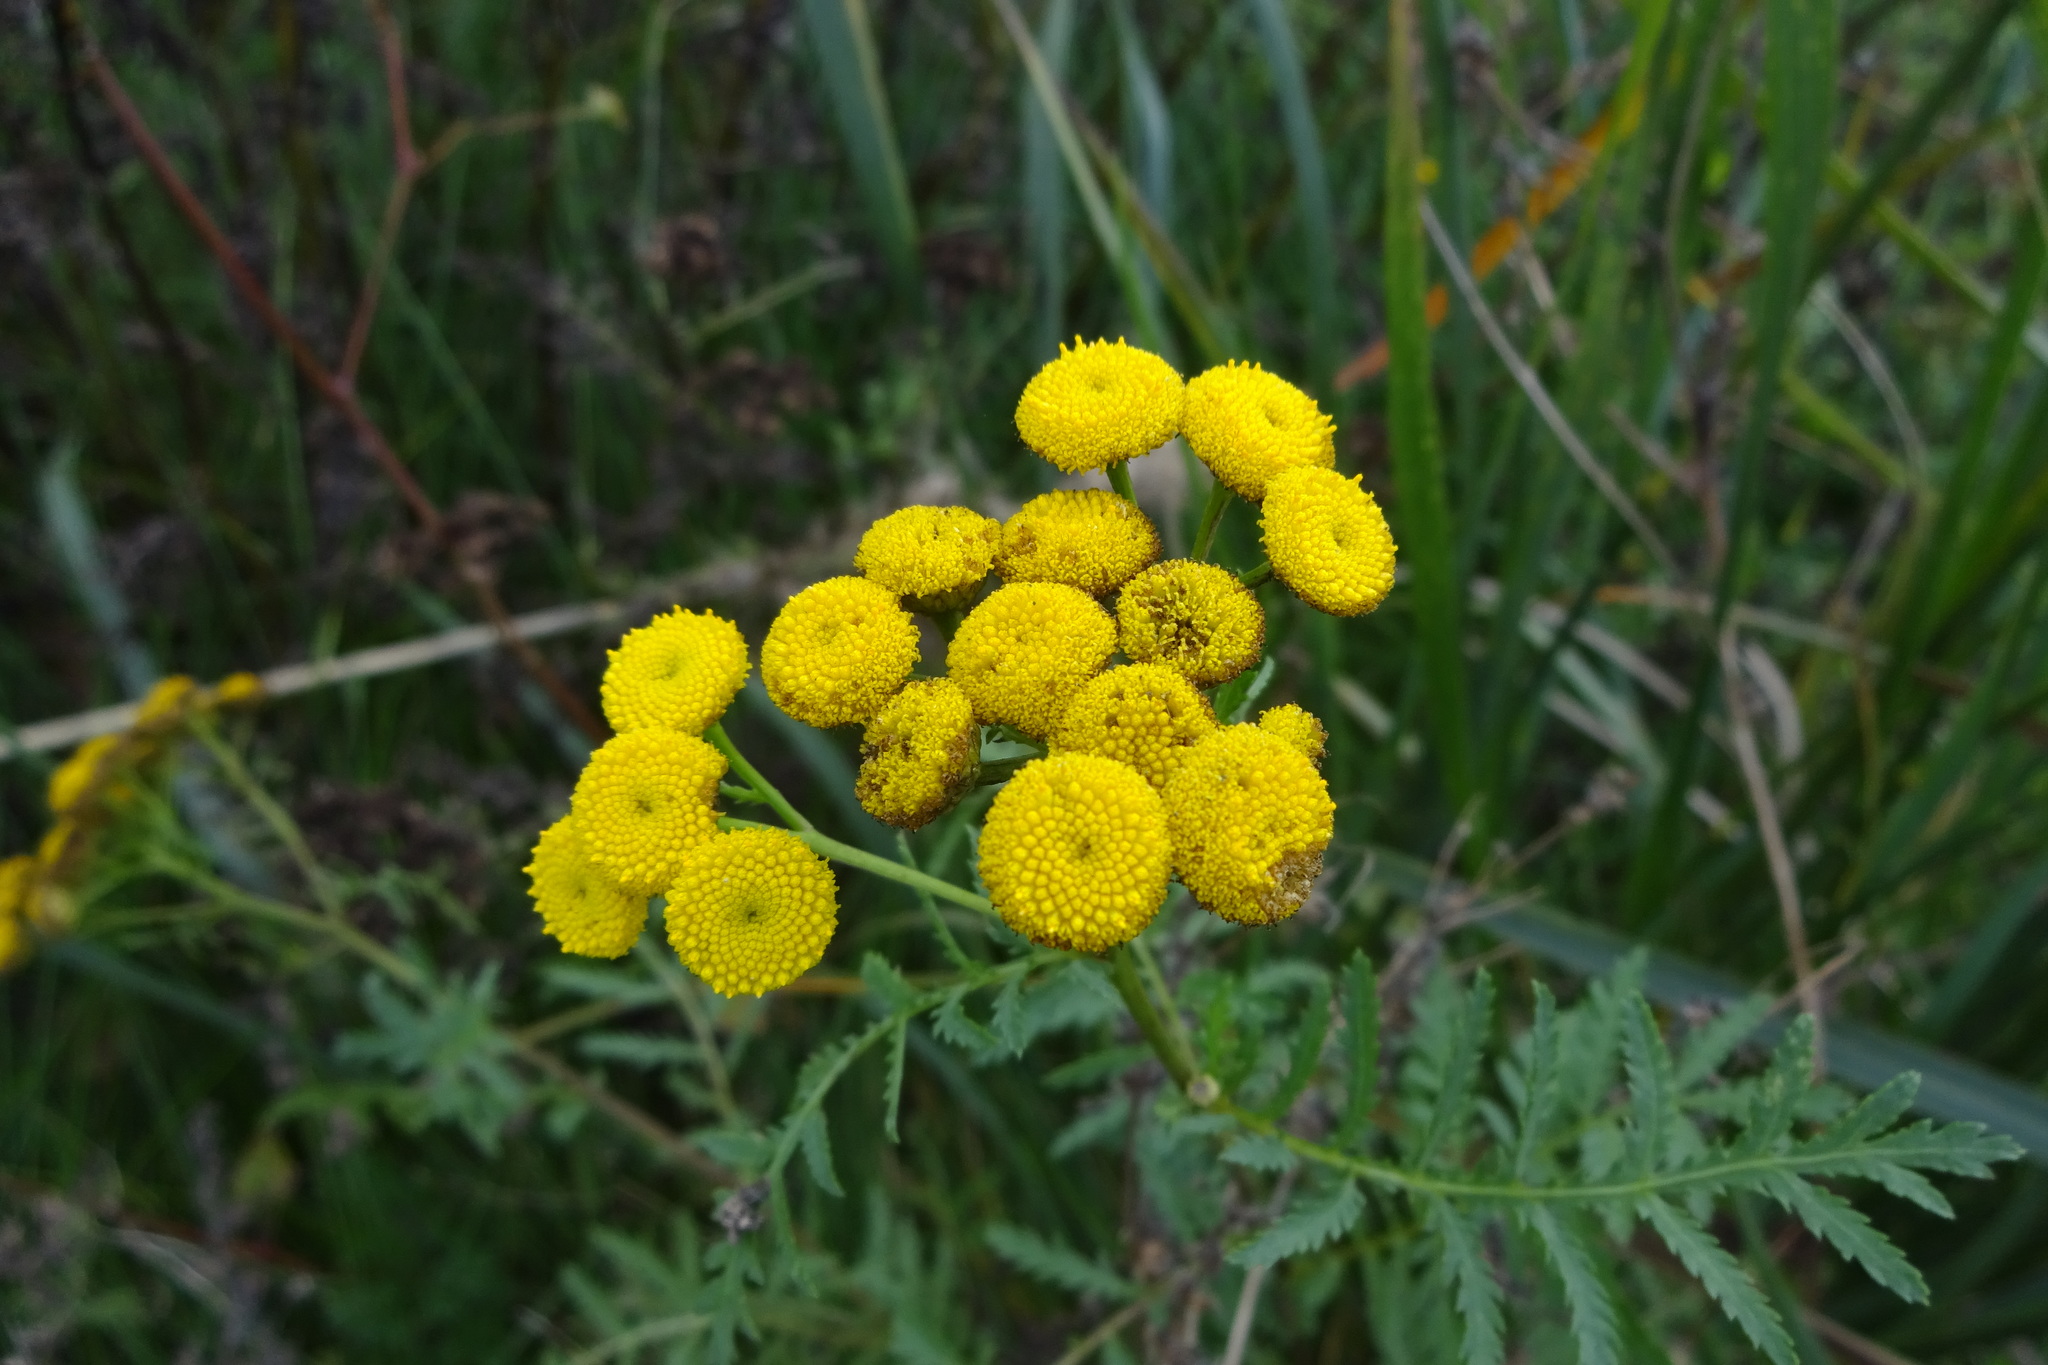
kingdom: Plantae
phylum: Tracheophyta
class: Magnoliopsida
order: Asterales
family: Asteraceae
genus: Tanacetum
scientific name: Tanacetum vulgare
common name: Common tansy
